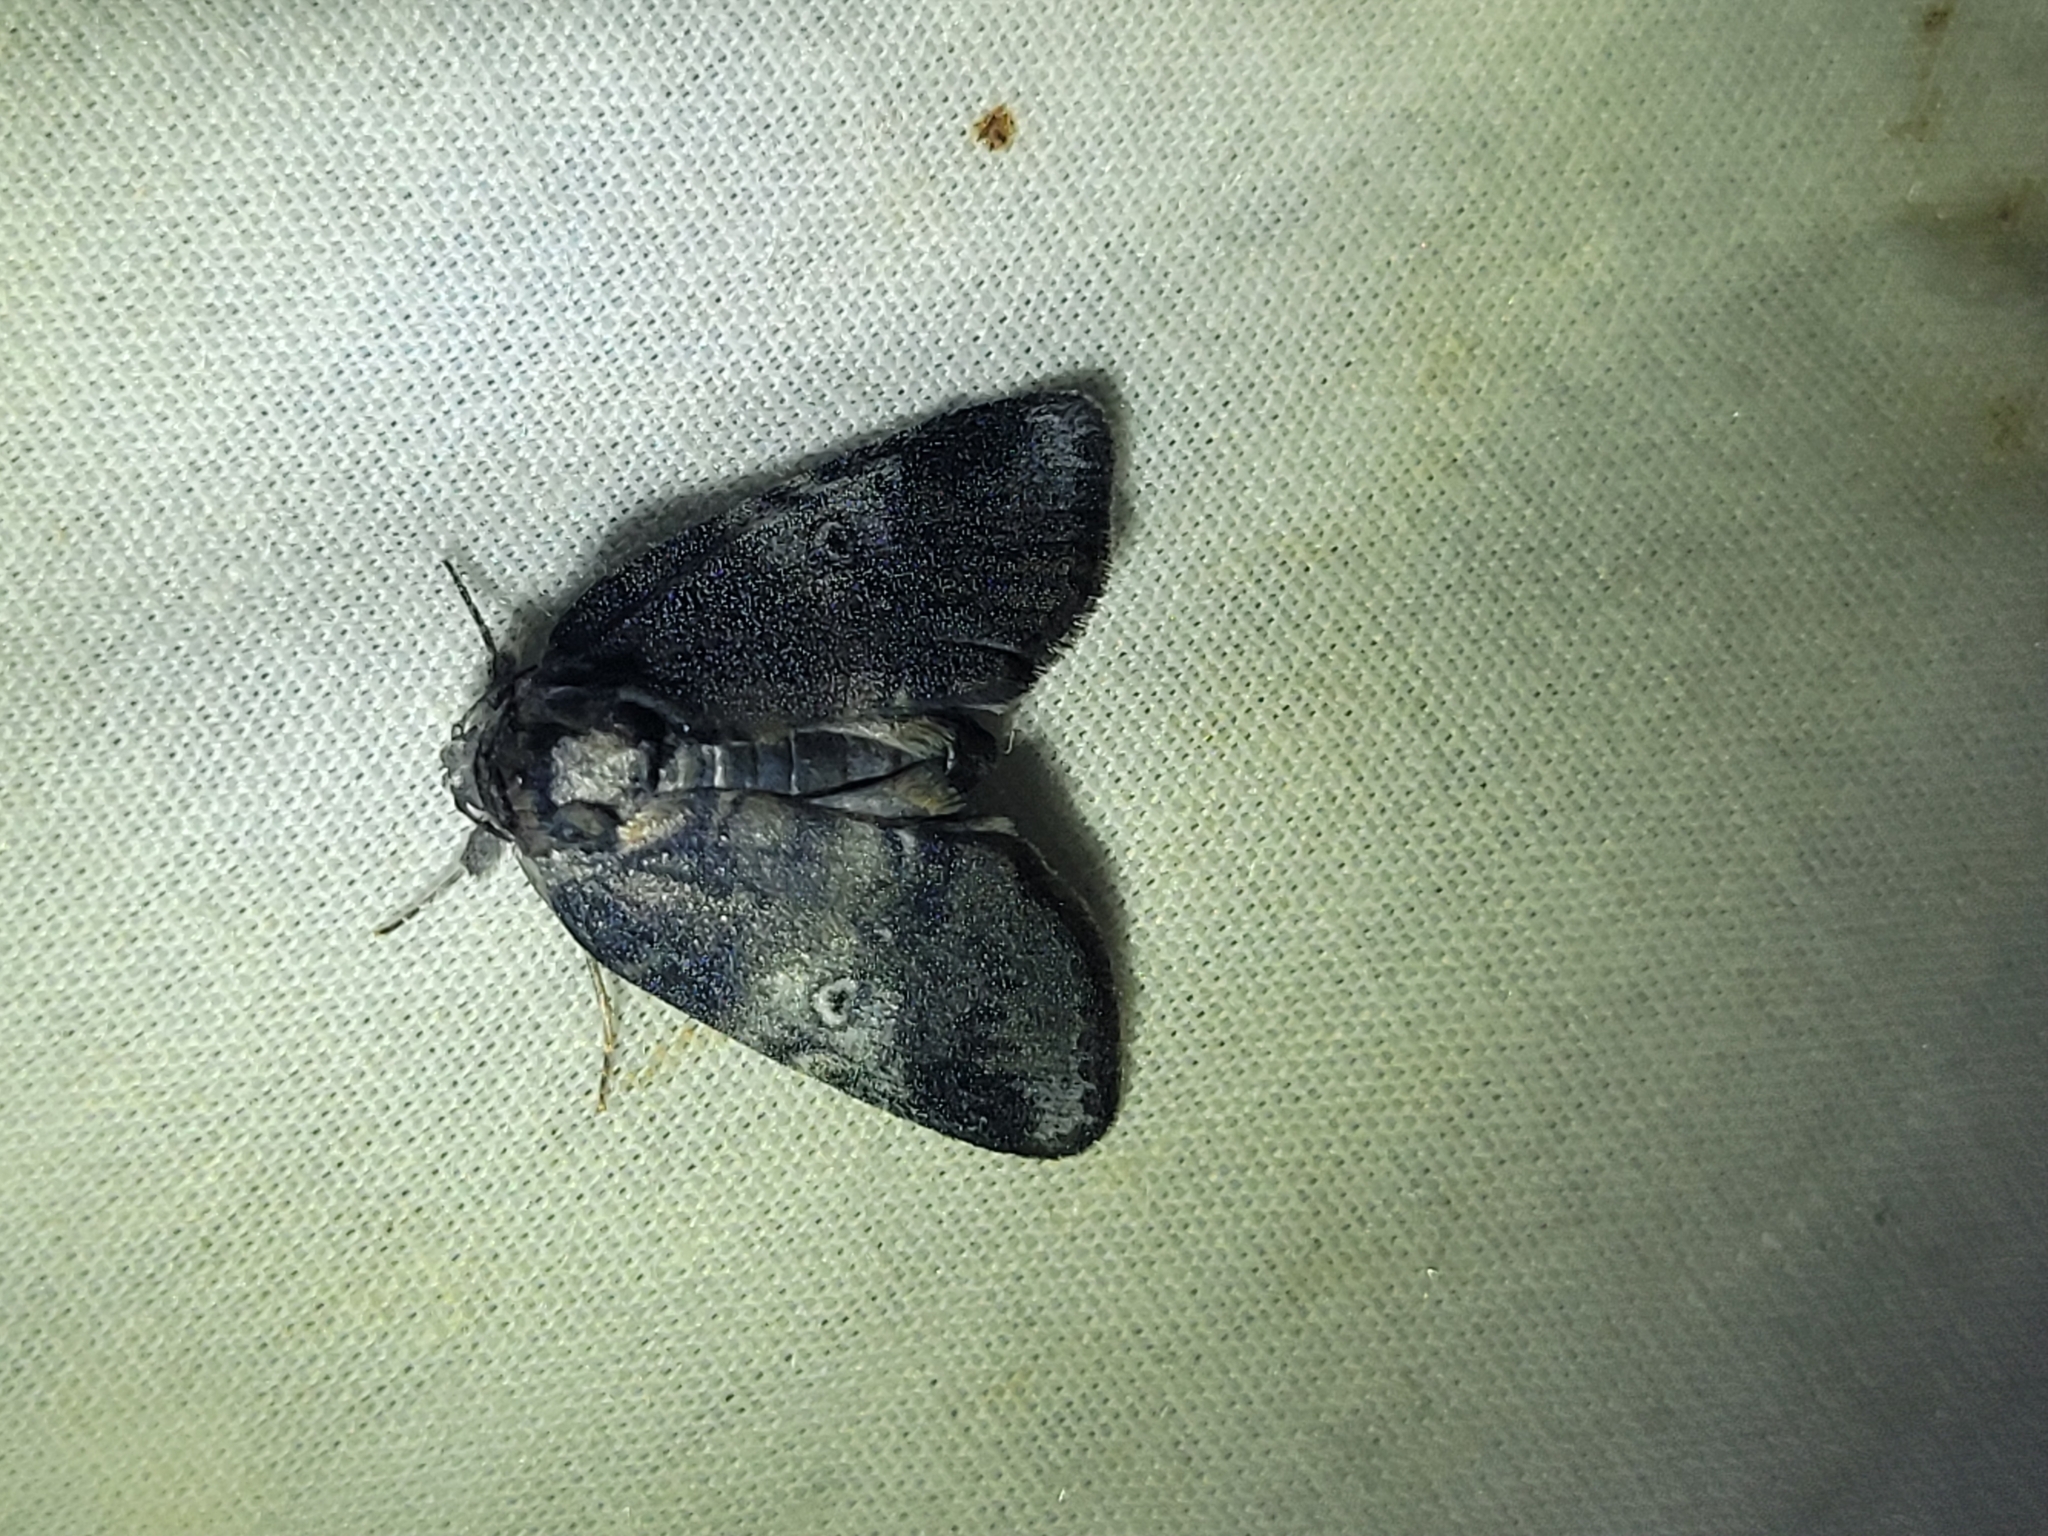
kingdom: Animalia
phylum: Arthropoda
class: Insecta
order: Lepidoptera
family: Nolidae
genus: Baileya
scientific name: Baileya levitans
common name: Pale baileya
